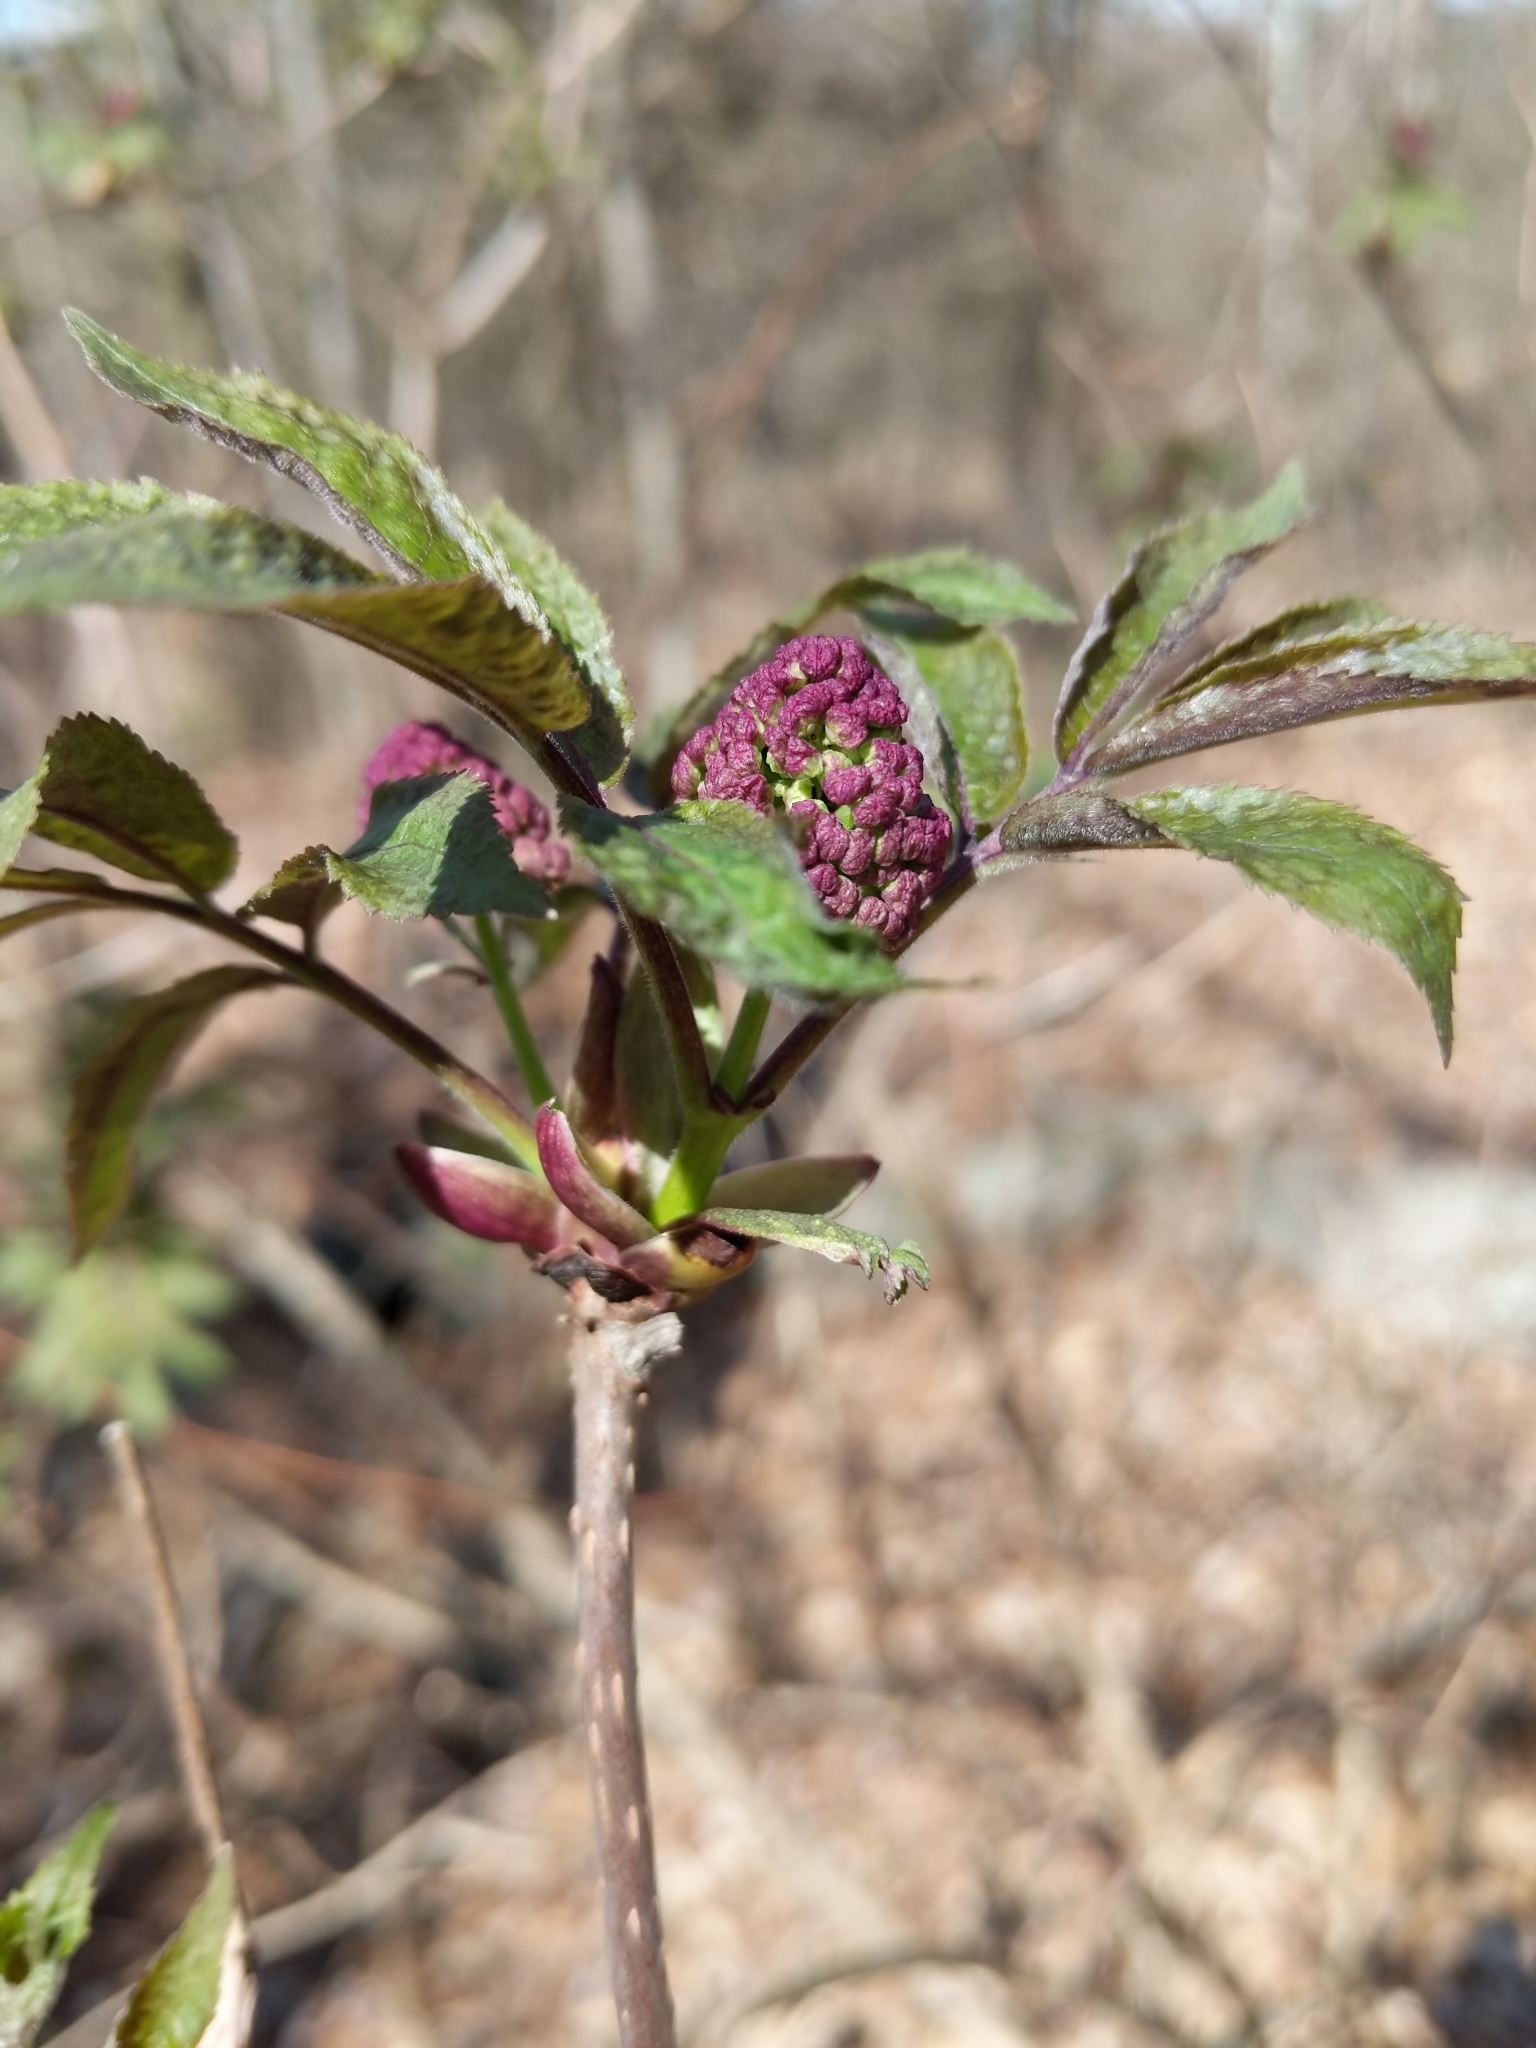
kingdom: Plantae
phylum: Tracheophyta
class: Magnoliopsida
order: Dipsacales
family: Viburnaceae
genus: Sambucus
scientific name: Sambucus racemosa
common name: Red-berried elder
